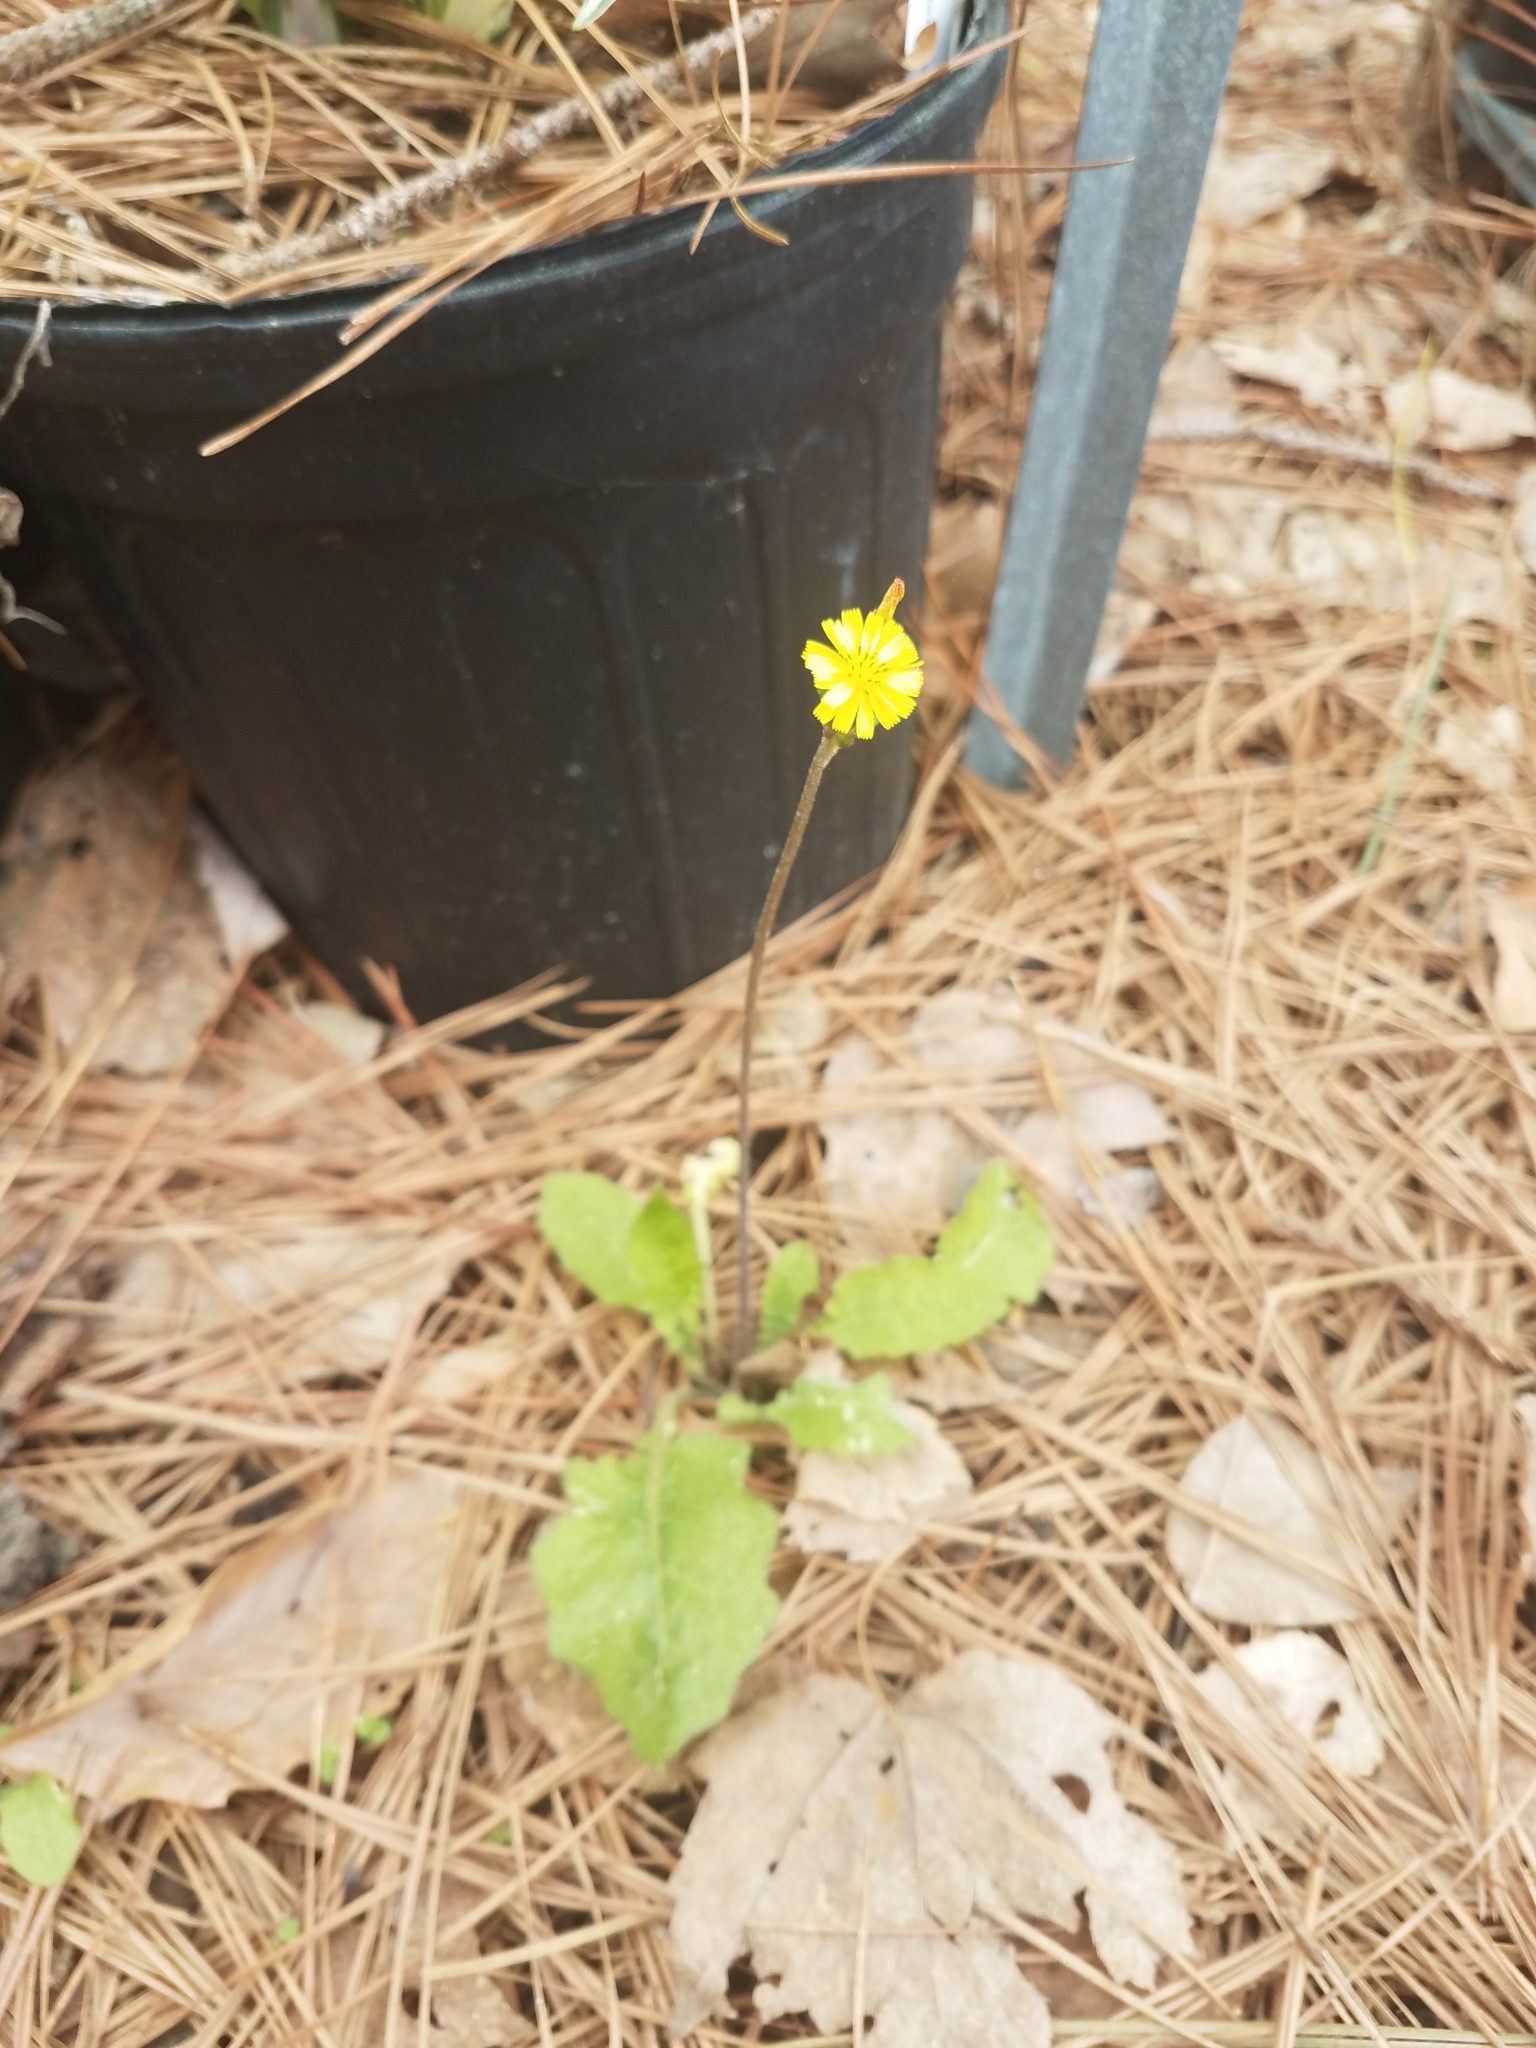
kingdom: Plantae
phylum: Tracheophyta
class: Magnoliopsida
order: Asterales
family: Asteraceae
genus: Youngia
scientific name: Youngia japonica
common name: Oriental false hawksbeard
